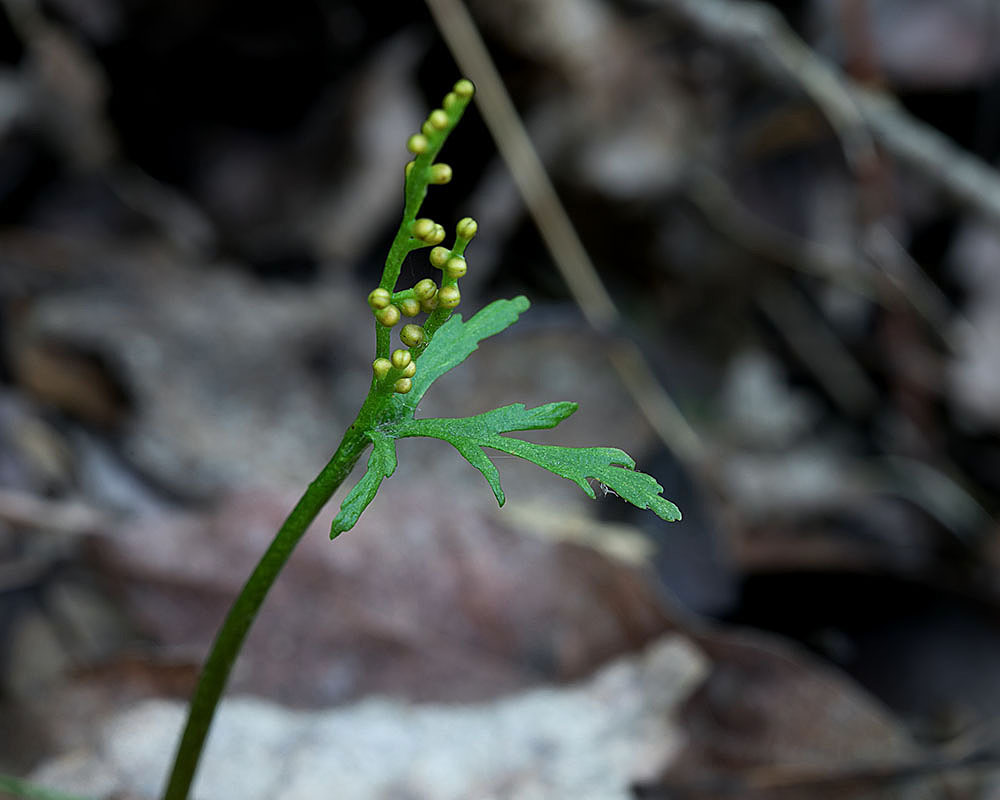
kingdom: Plantae
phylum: Tracheophyta
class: Polypodiopsida
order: Ophioglossales
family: Ophioglossaceae
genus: Botrychium
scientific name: Botrychium angustisegmentum
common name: Narrow triangle moonwort
